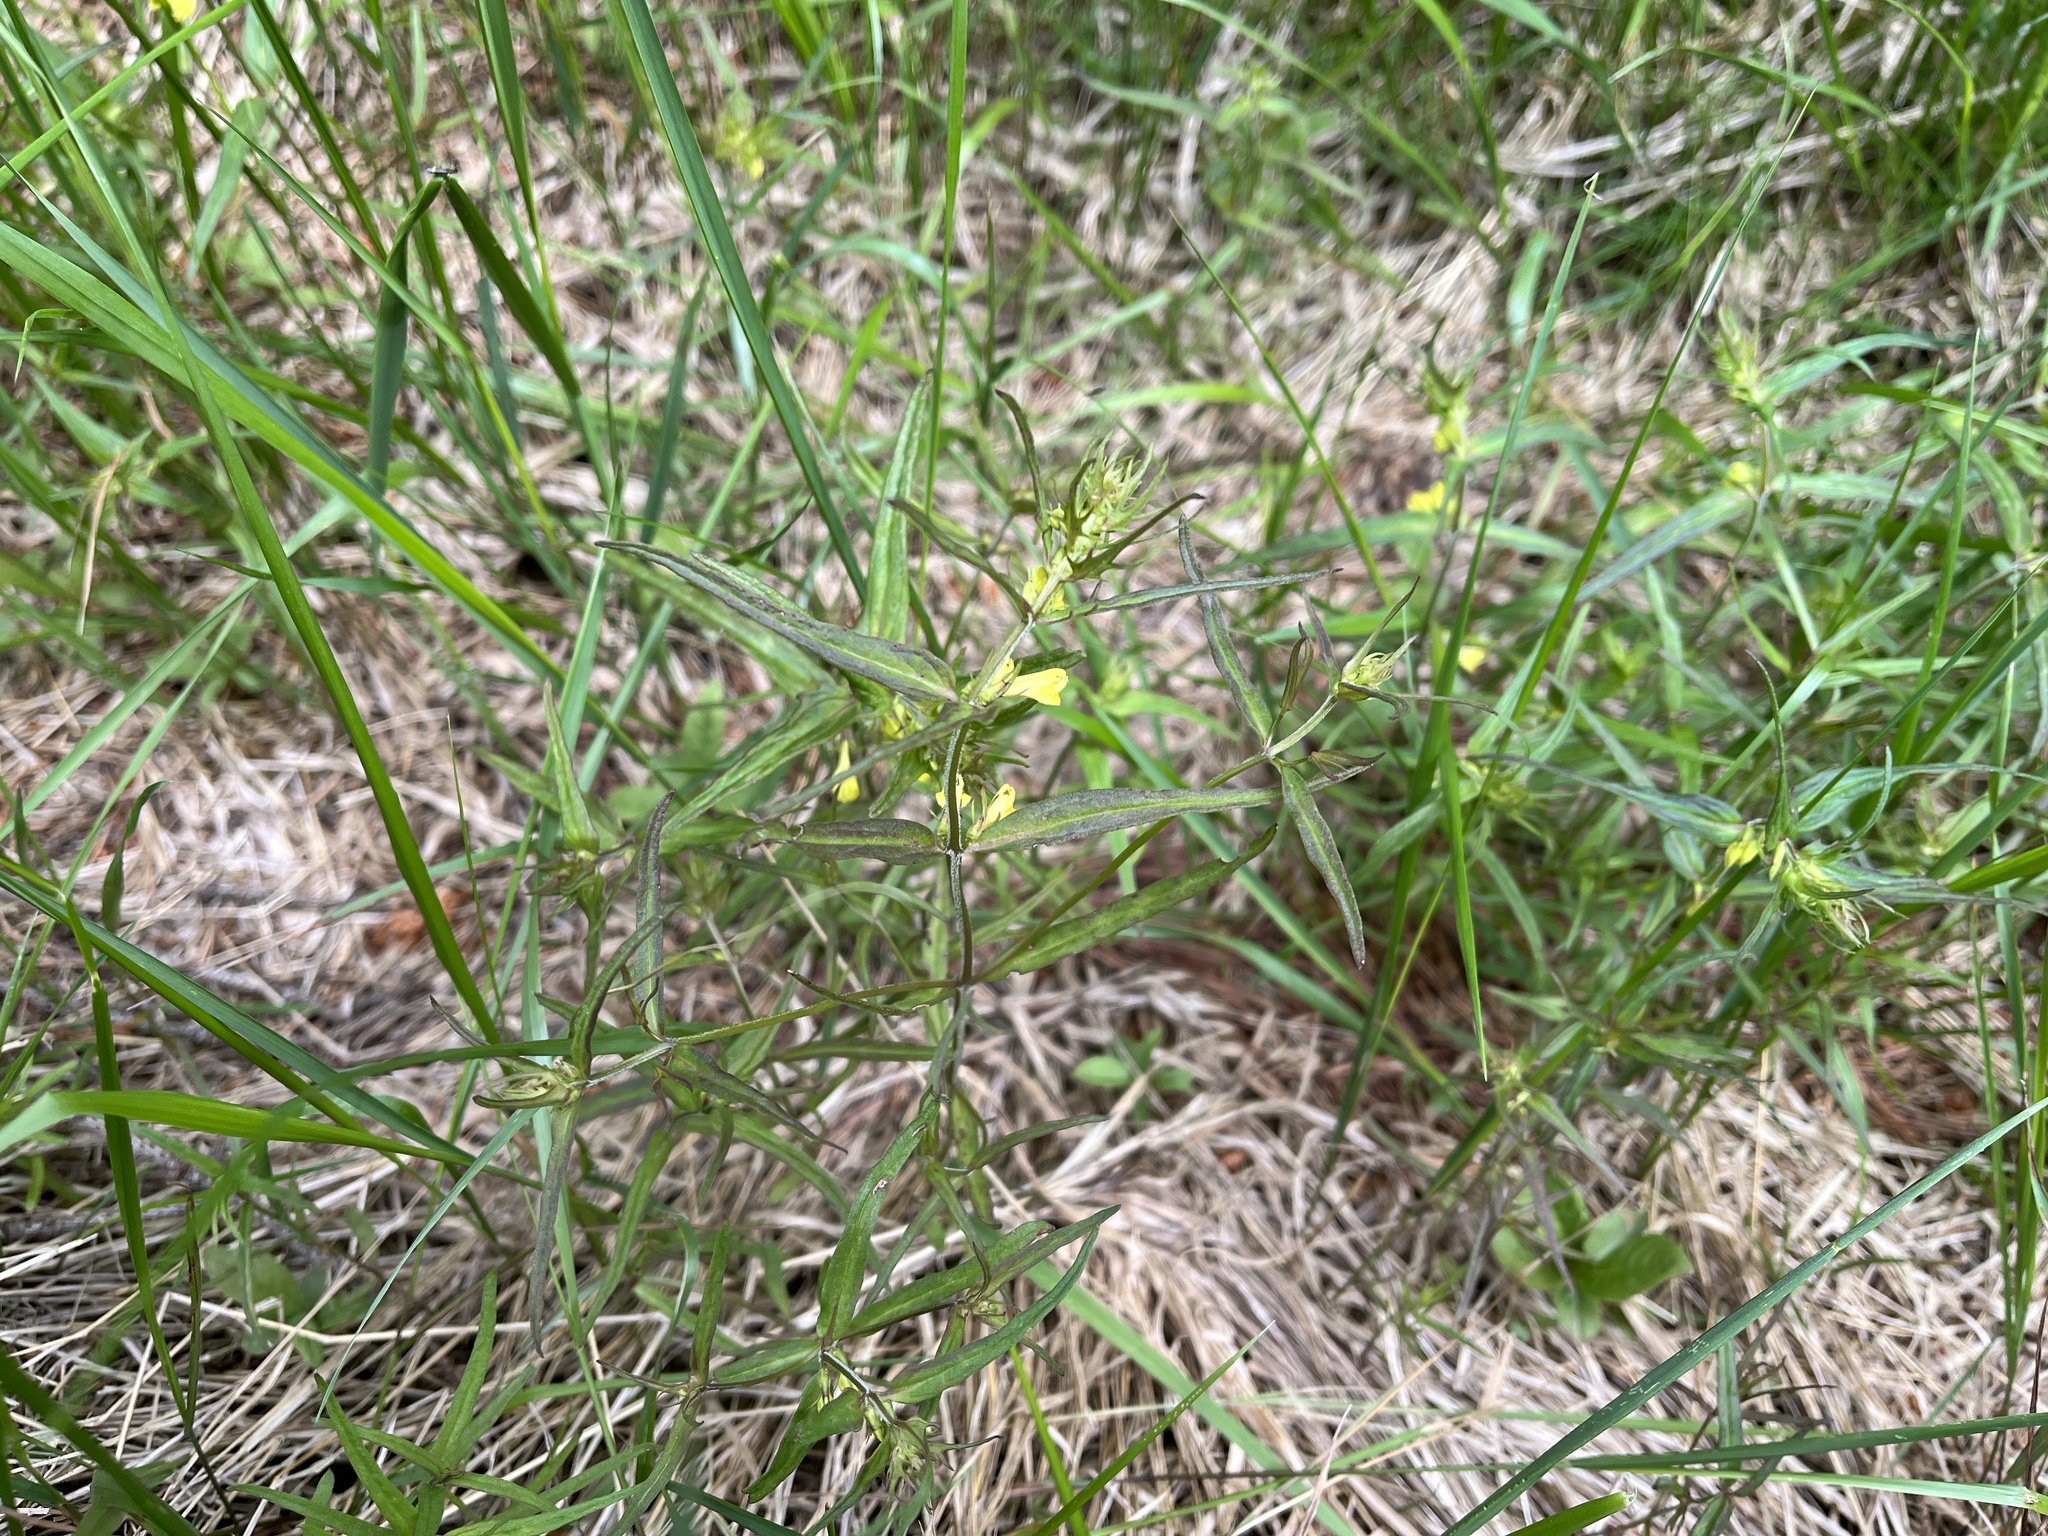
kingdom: Plantae
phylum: Tracheophyta
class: Magnoliopsida
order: Lamiales
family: Orobanchaceae
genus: Melampyrum
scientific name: Melampyrum pratense
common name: Common cow-wheat
